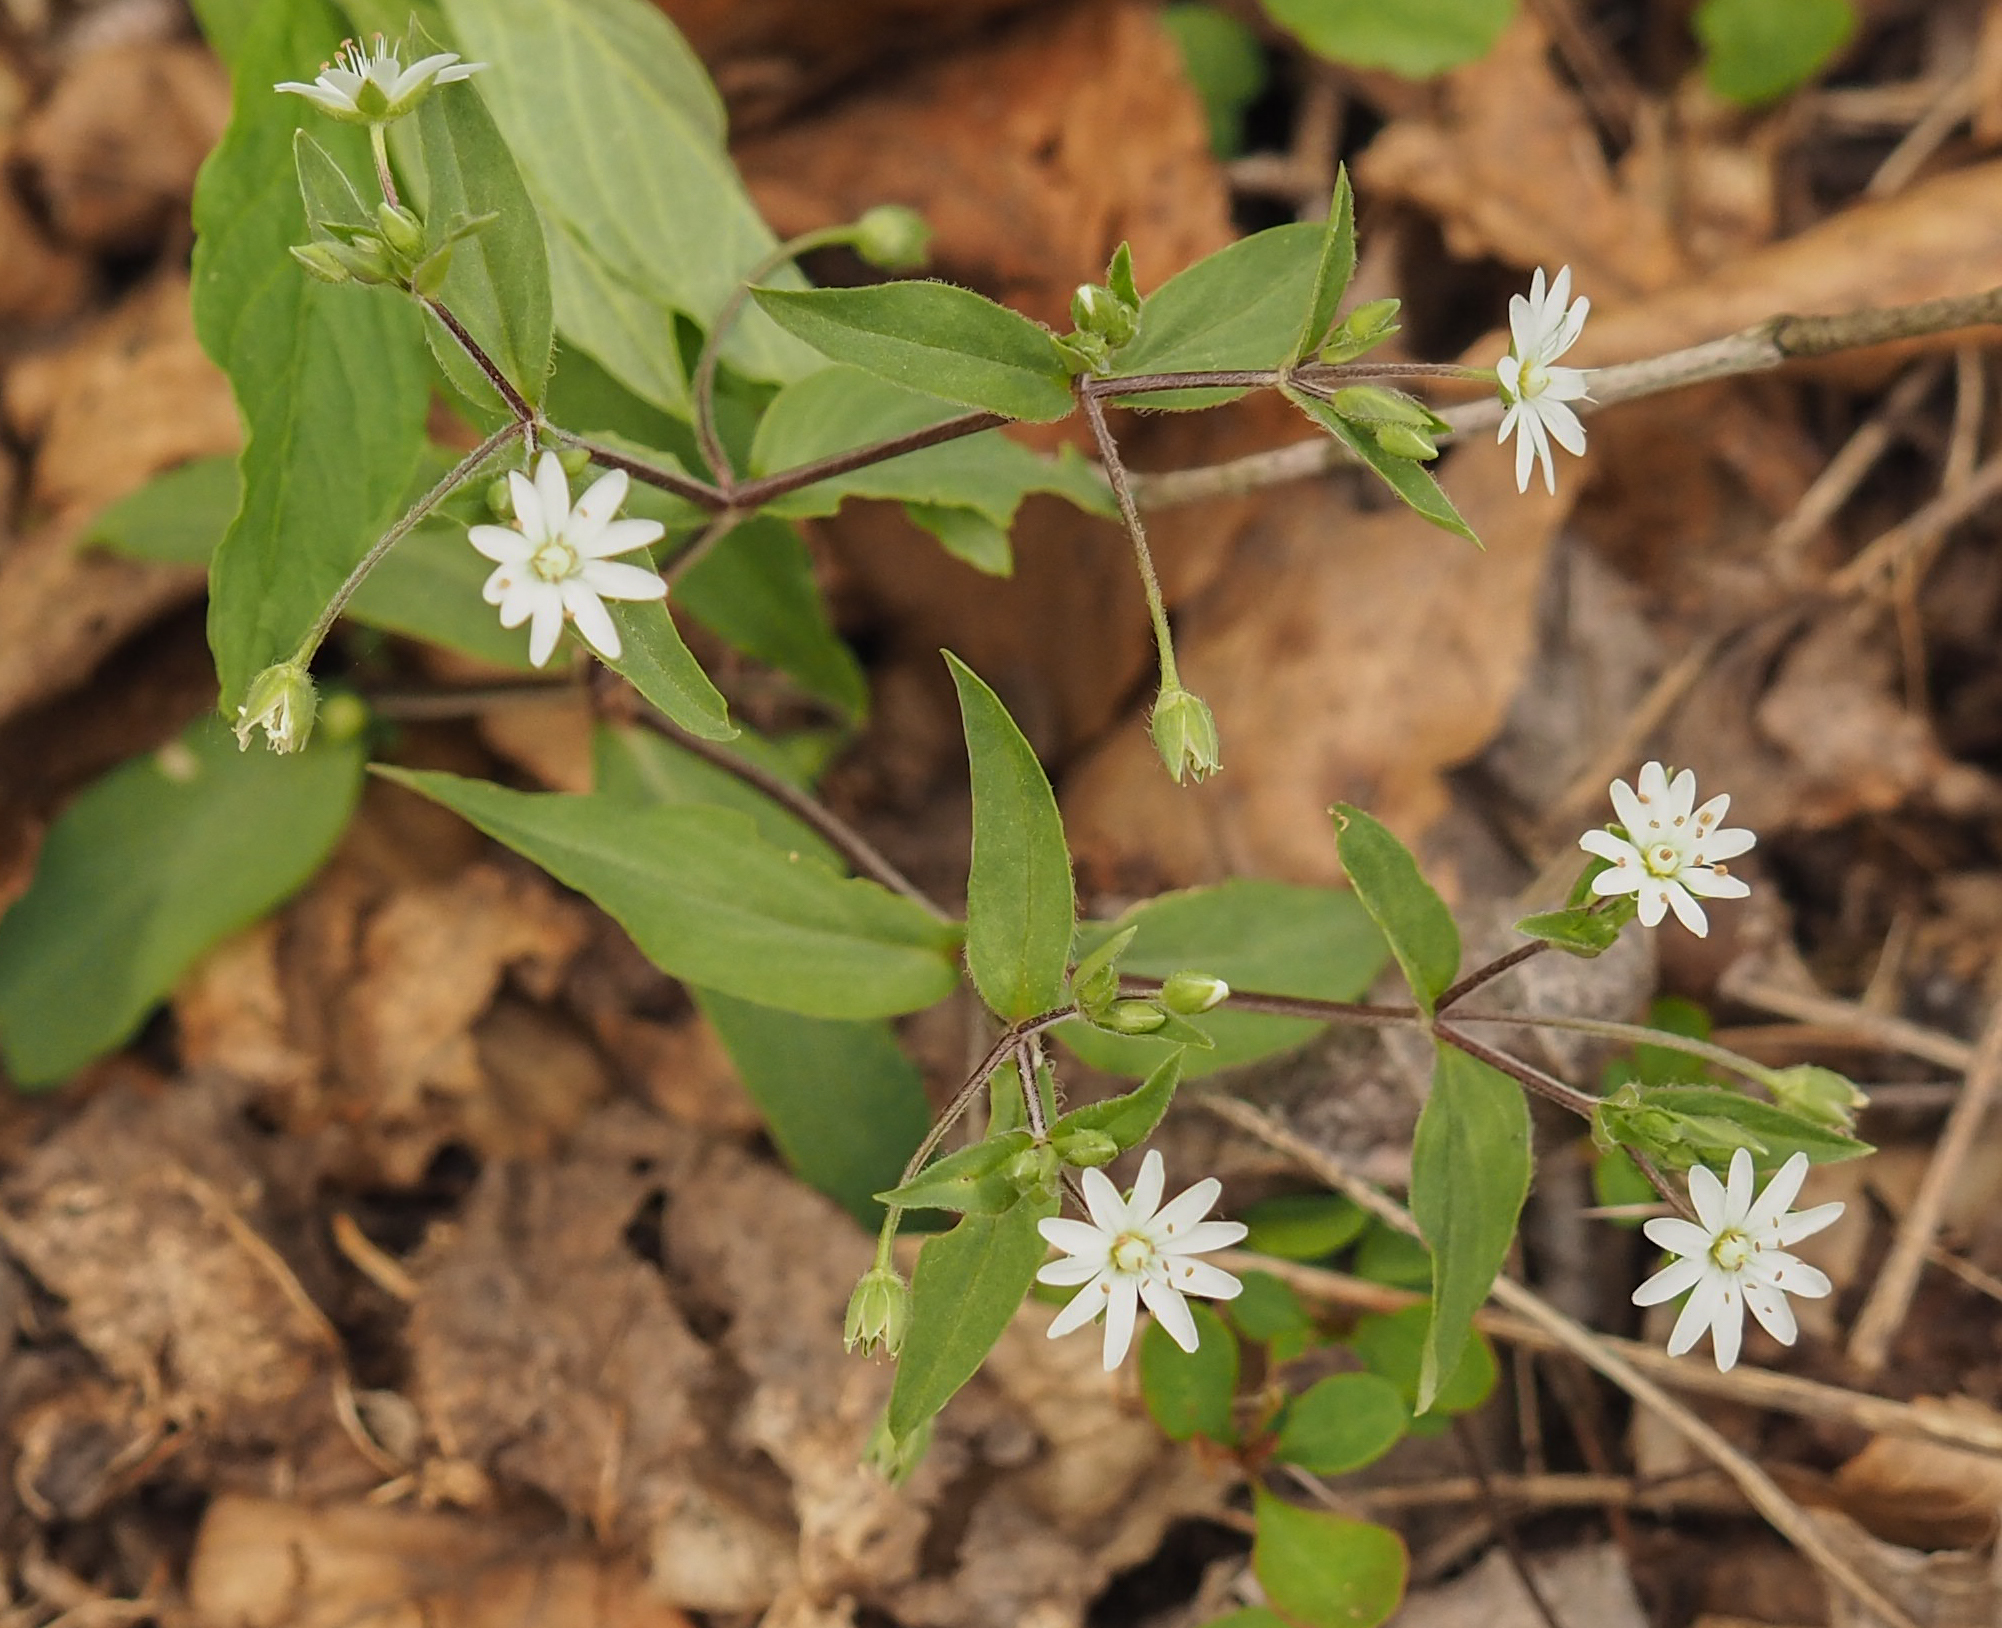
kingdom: Plantae
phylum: Tracheophyta
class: Magnoliopsida
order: Caryophyllales
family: Caryophyllaceae
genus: Stellaria
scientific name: Stellaria pubera
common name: Star chickweed
